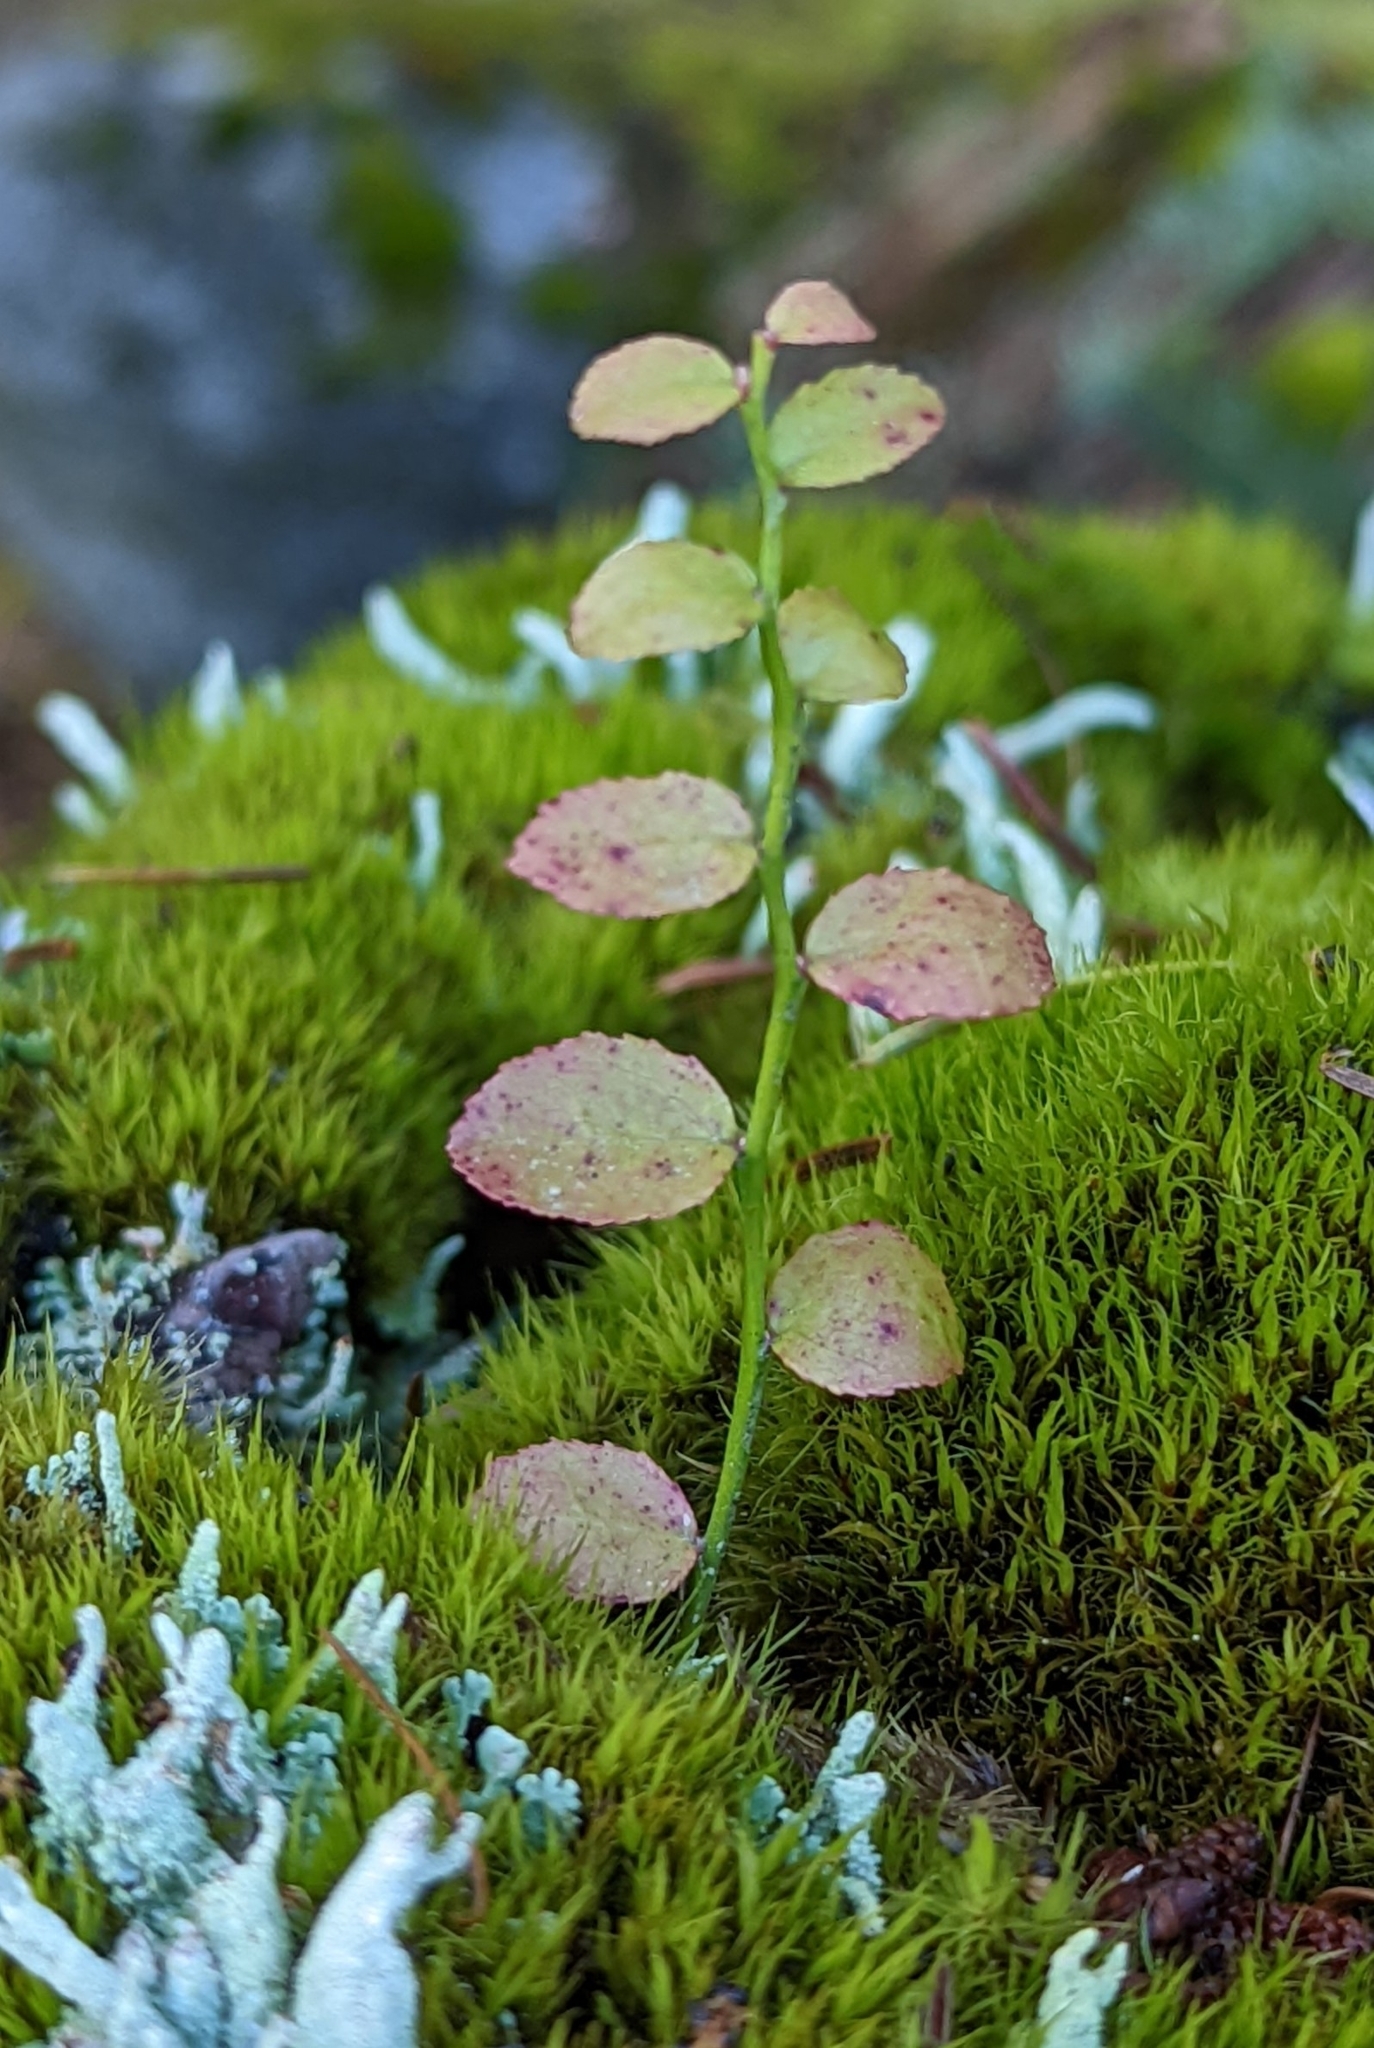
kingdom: Plantae
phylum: Tracheophyta
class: Magnoliopsida
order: Ericales
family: Ericaceae
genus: Vaccinium
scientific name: Vaccinium parvifolium
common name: Red-huckleberry
